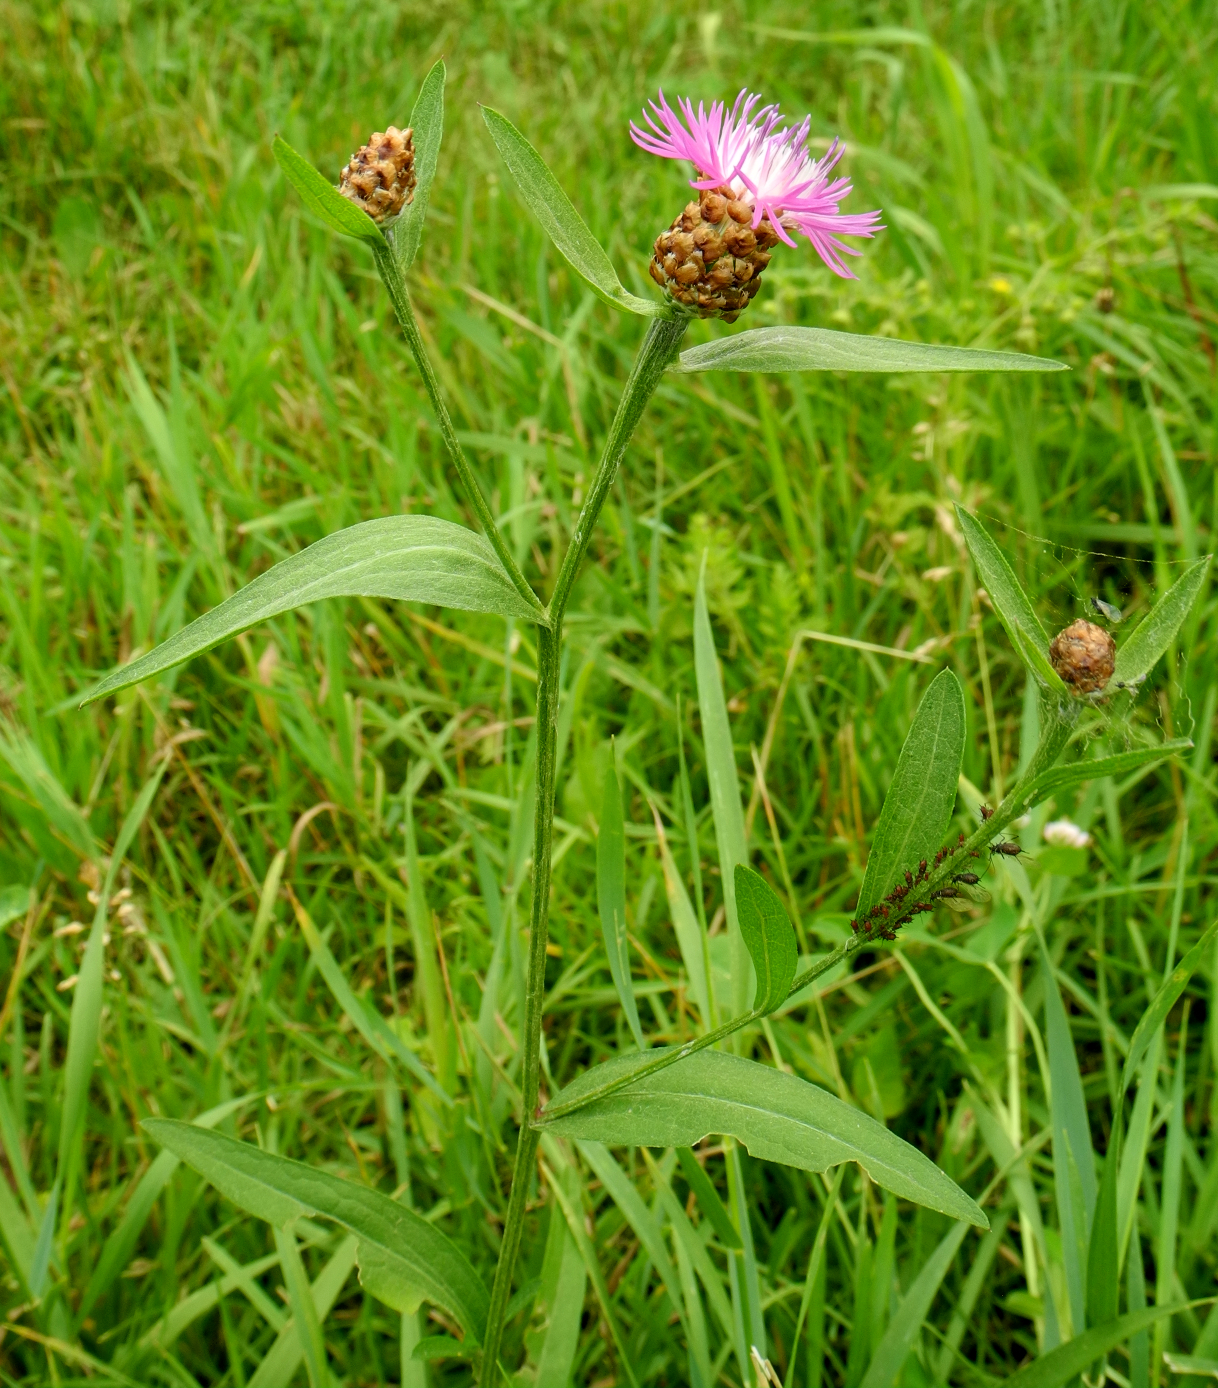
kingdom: Plantae
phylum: Tracheophyta
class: Magnoliopsida
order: Asterales
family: Asteraceae
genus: Centaurea
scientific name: Centaurea jacea
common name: Brown knapweed
